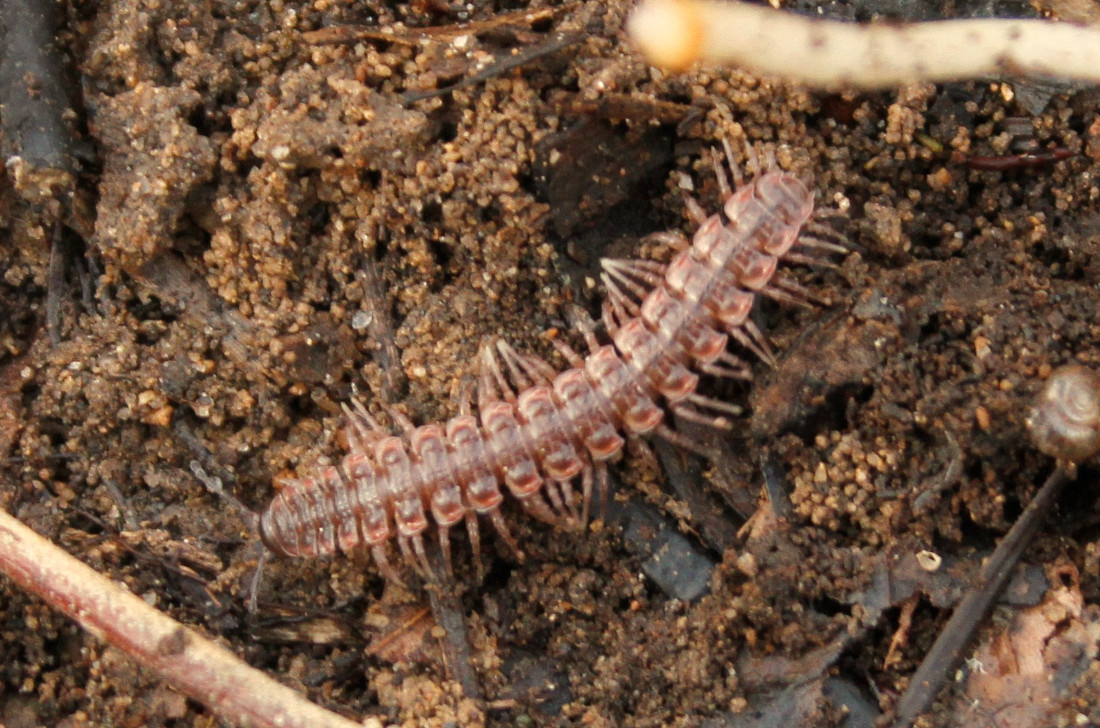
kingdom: Animalia
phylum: Arthropoda
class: Diplopoda
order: Polydesmida
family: Polydesmidae
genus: Pseudopolydesmus
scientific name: Pseudopolydesmus serratus
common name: Common pink flat-back millipede
